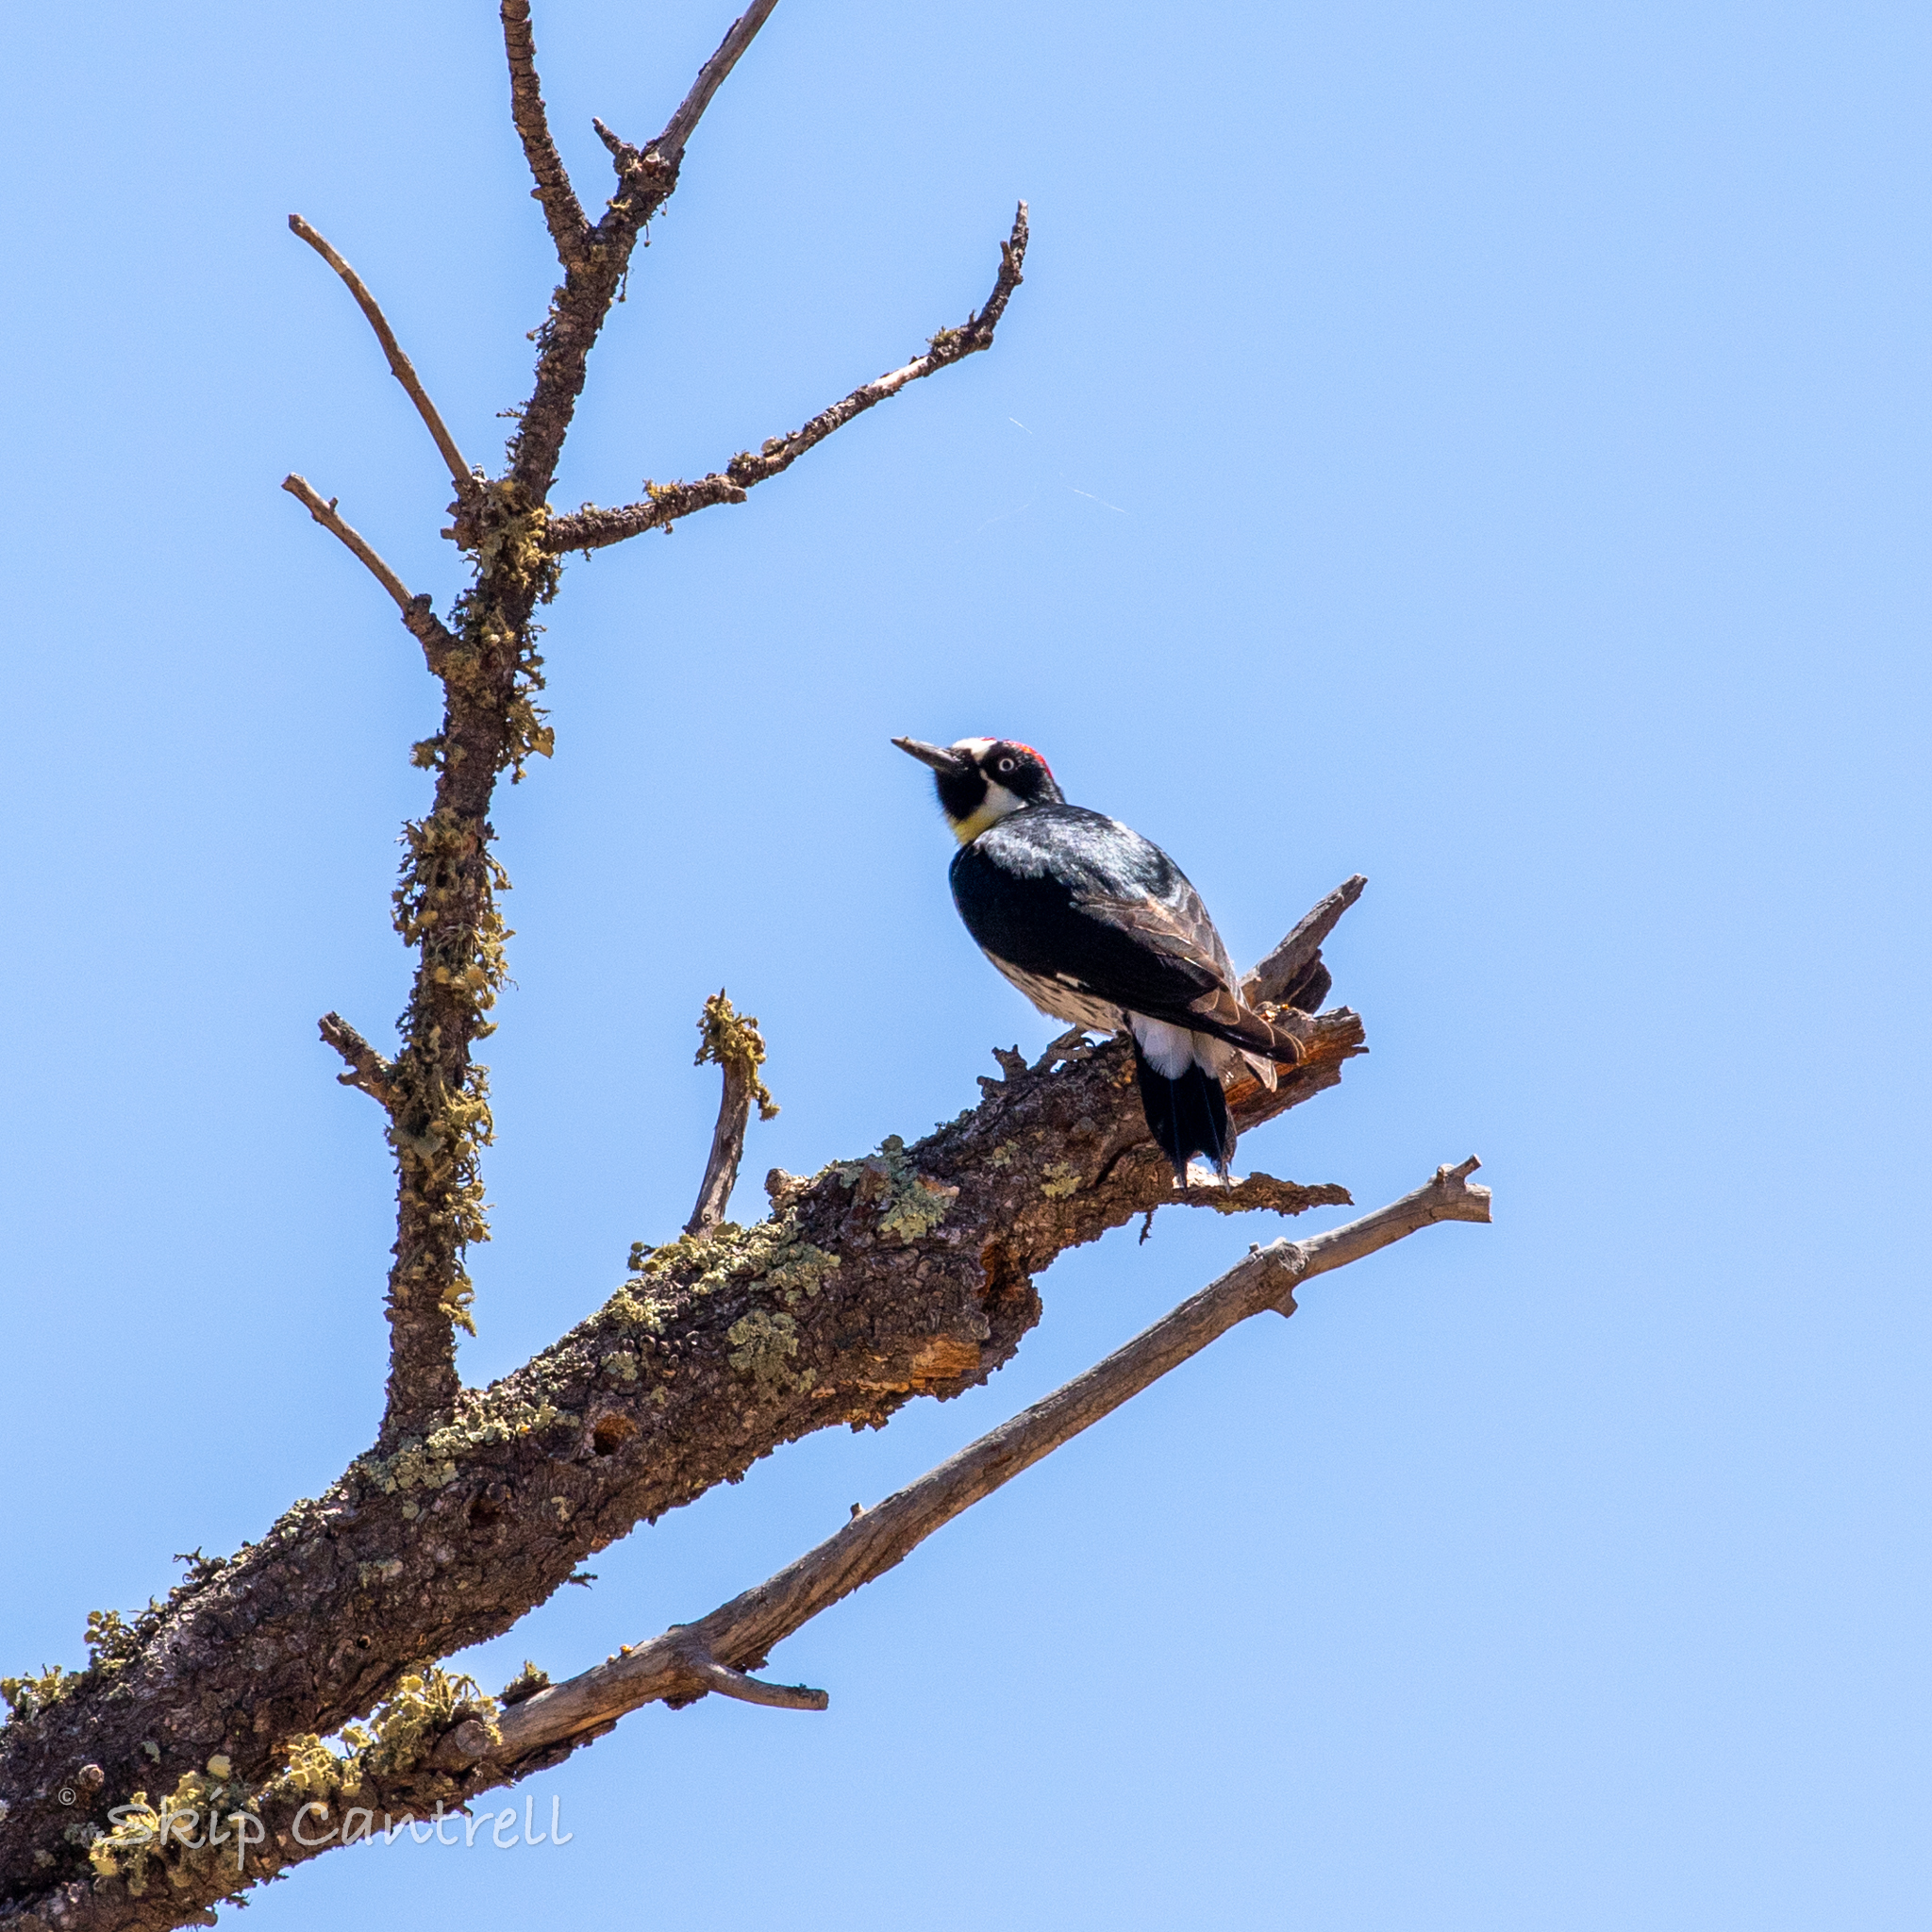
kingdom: Animalia
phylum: Chordata
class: Aves
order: Piciformes
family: Picidae
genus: Melanerpes
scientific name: Melanerpes formicivorus
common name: Acorn woodpecker
